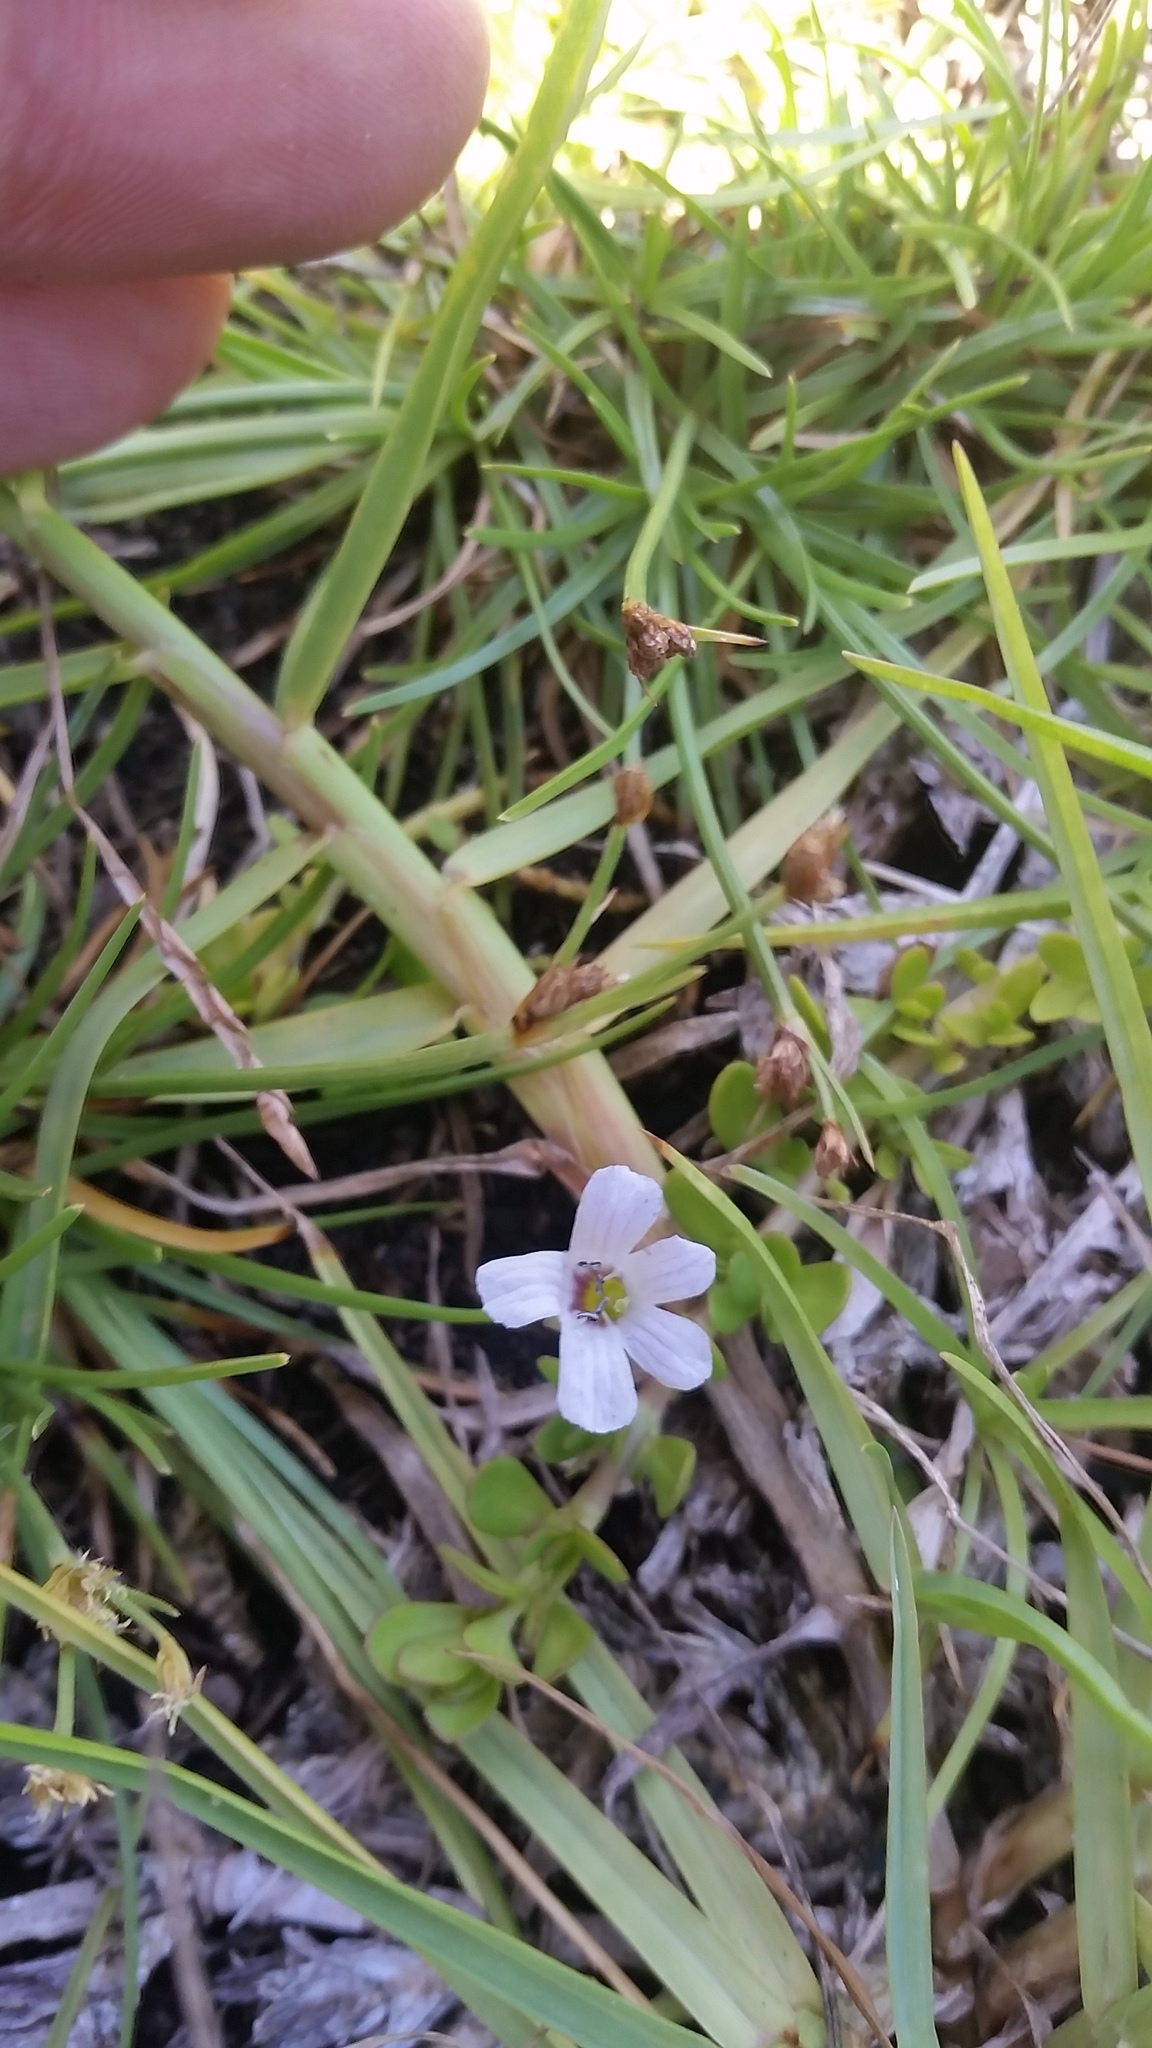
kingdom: Plantae
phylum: Tracheophyta
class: Magnoliopsida
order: Lamiales
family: Plantaginaceae
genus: Bacopa
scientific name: Bacopa monnieri
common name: Indian-pennywort
